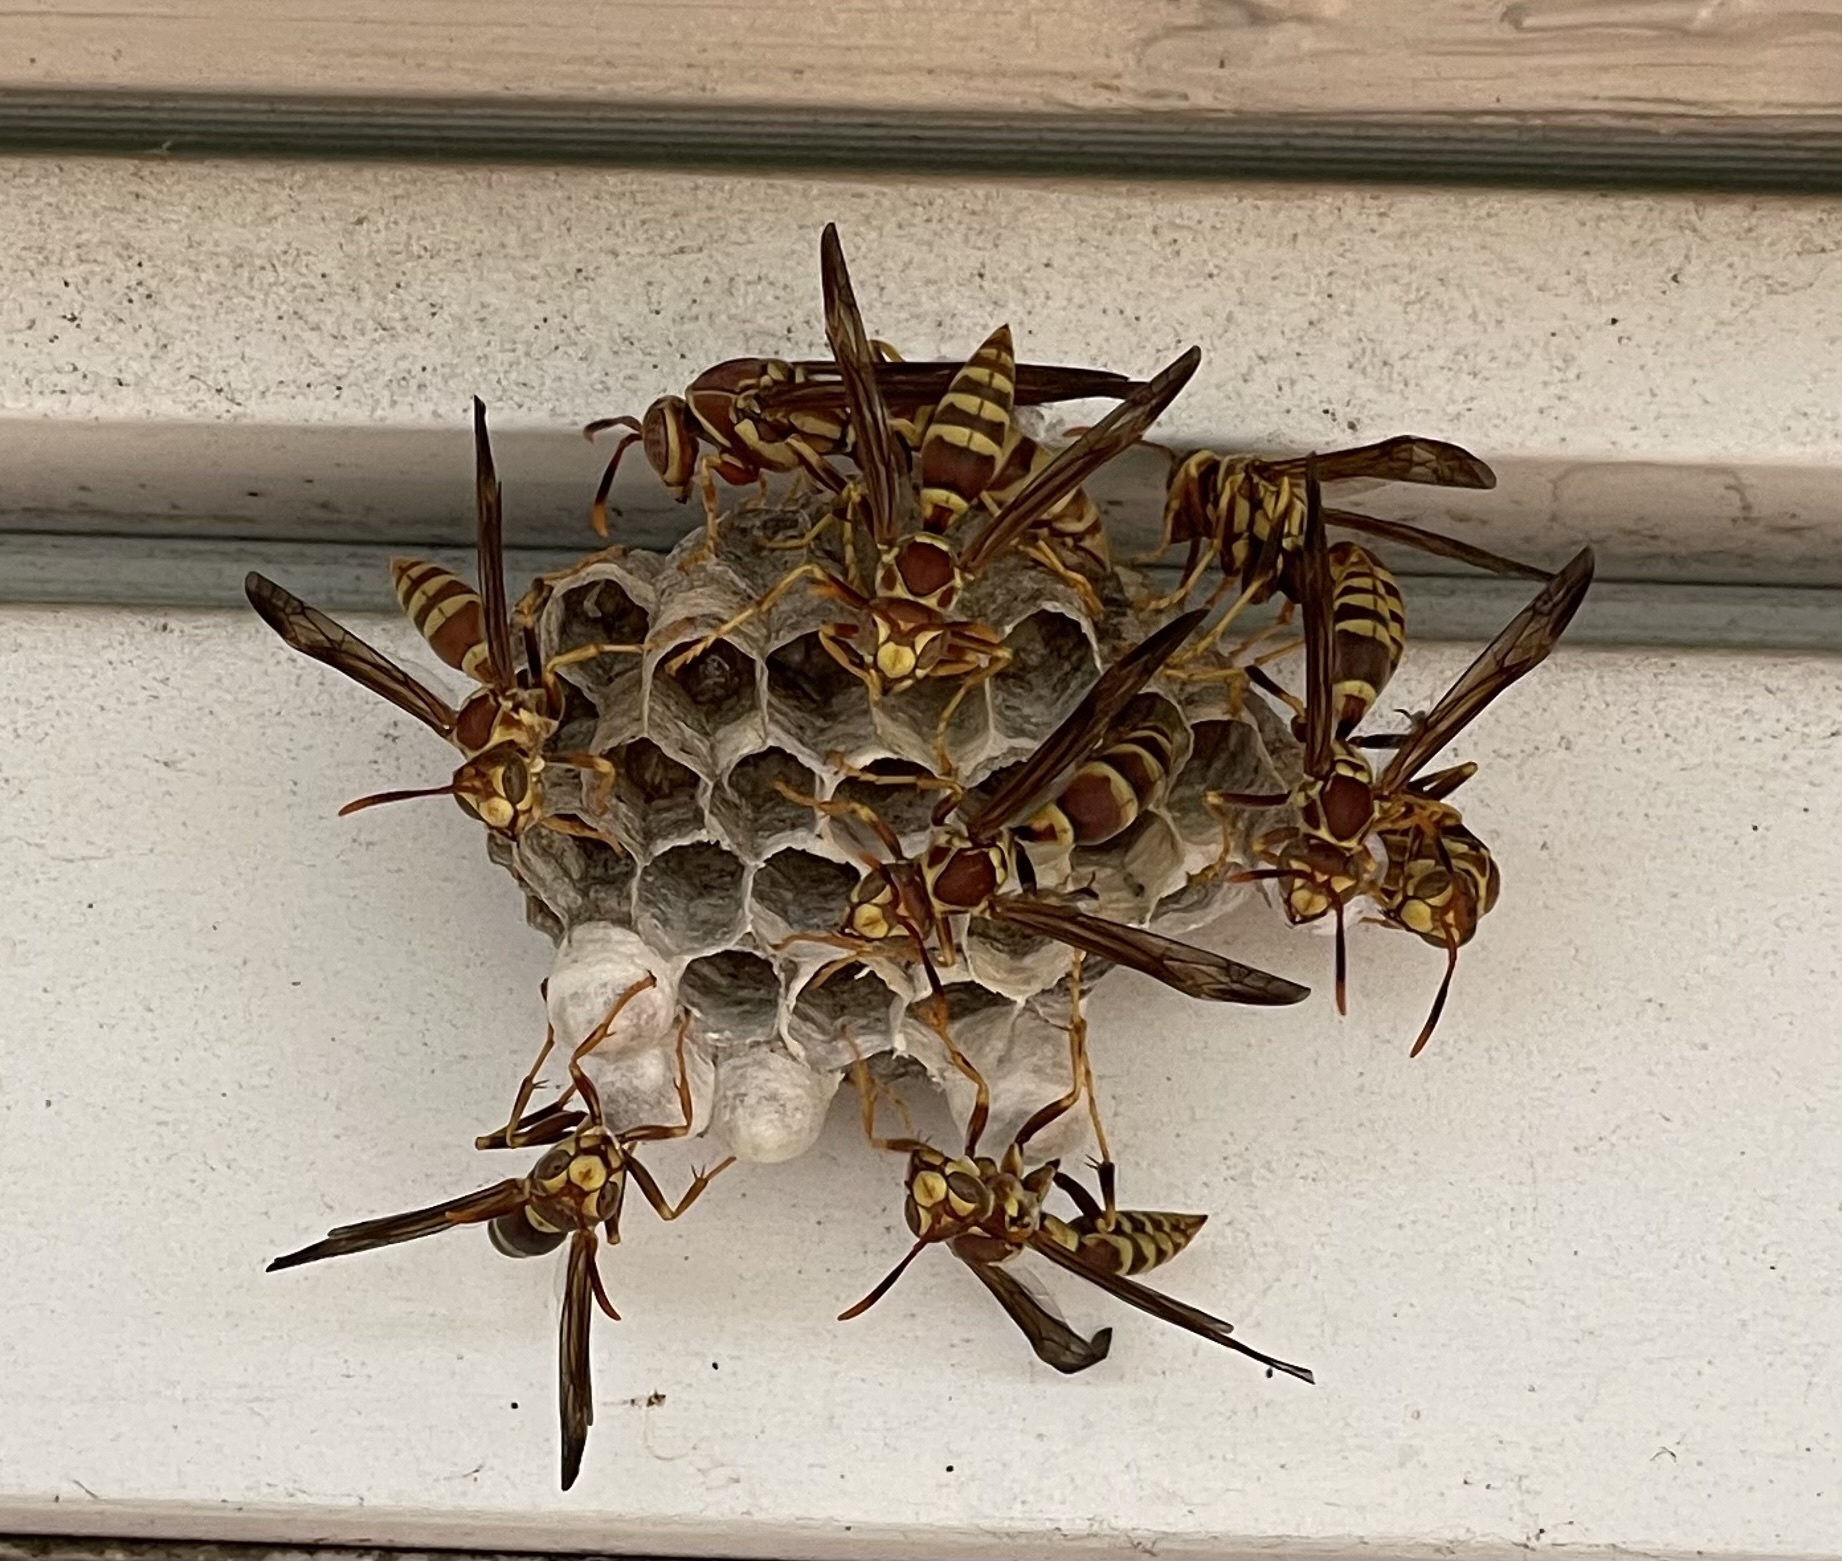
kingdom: Animalia
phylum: Arthropoda
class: Insecta
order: Hymenoptera
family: Eumenidae
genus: Polistes
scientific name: Polistes exclamans
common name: Paper wasp
